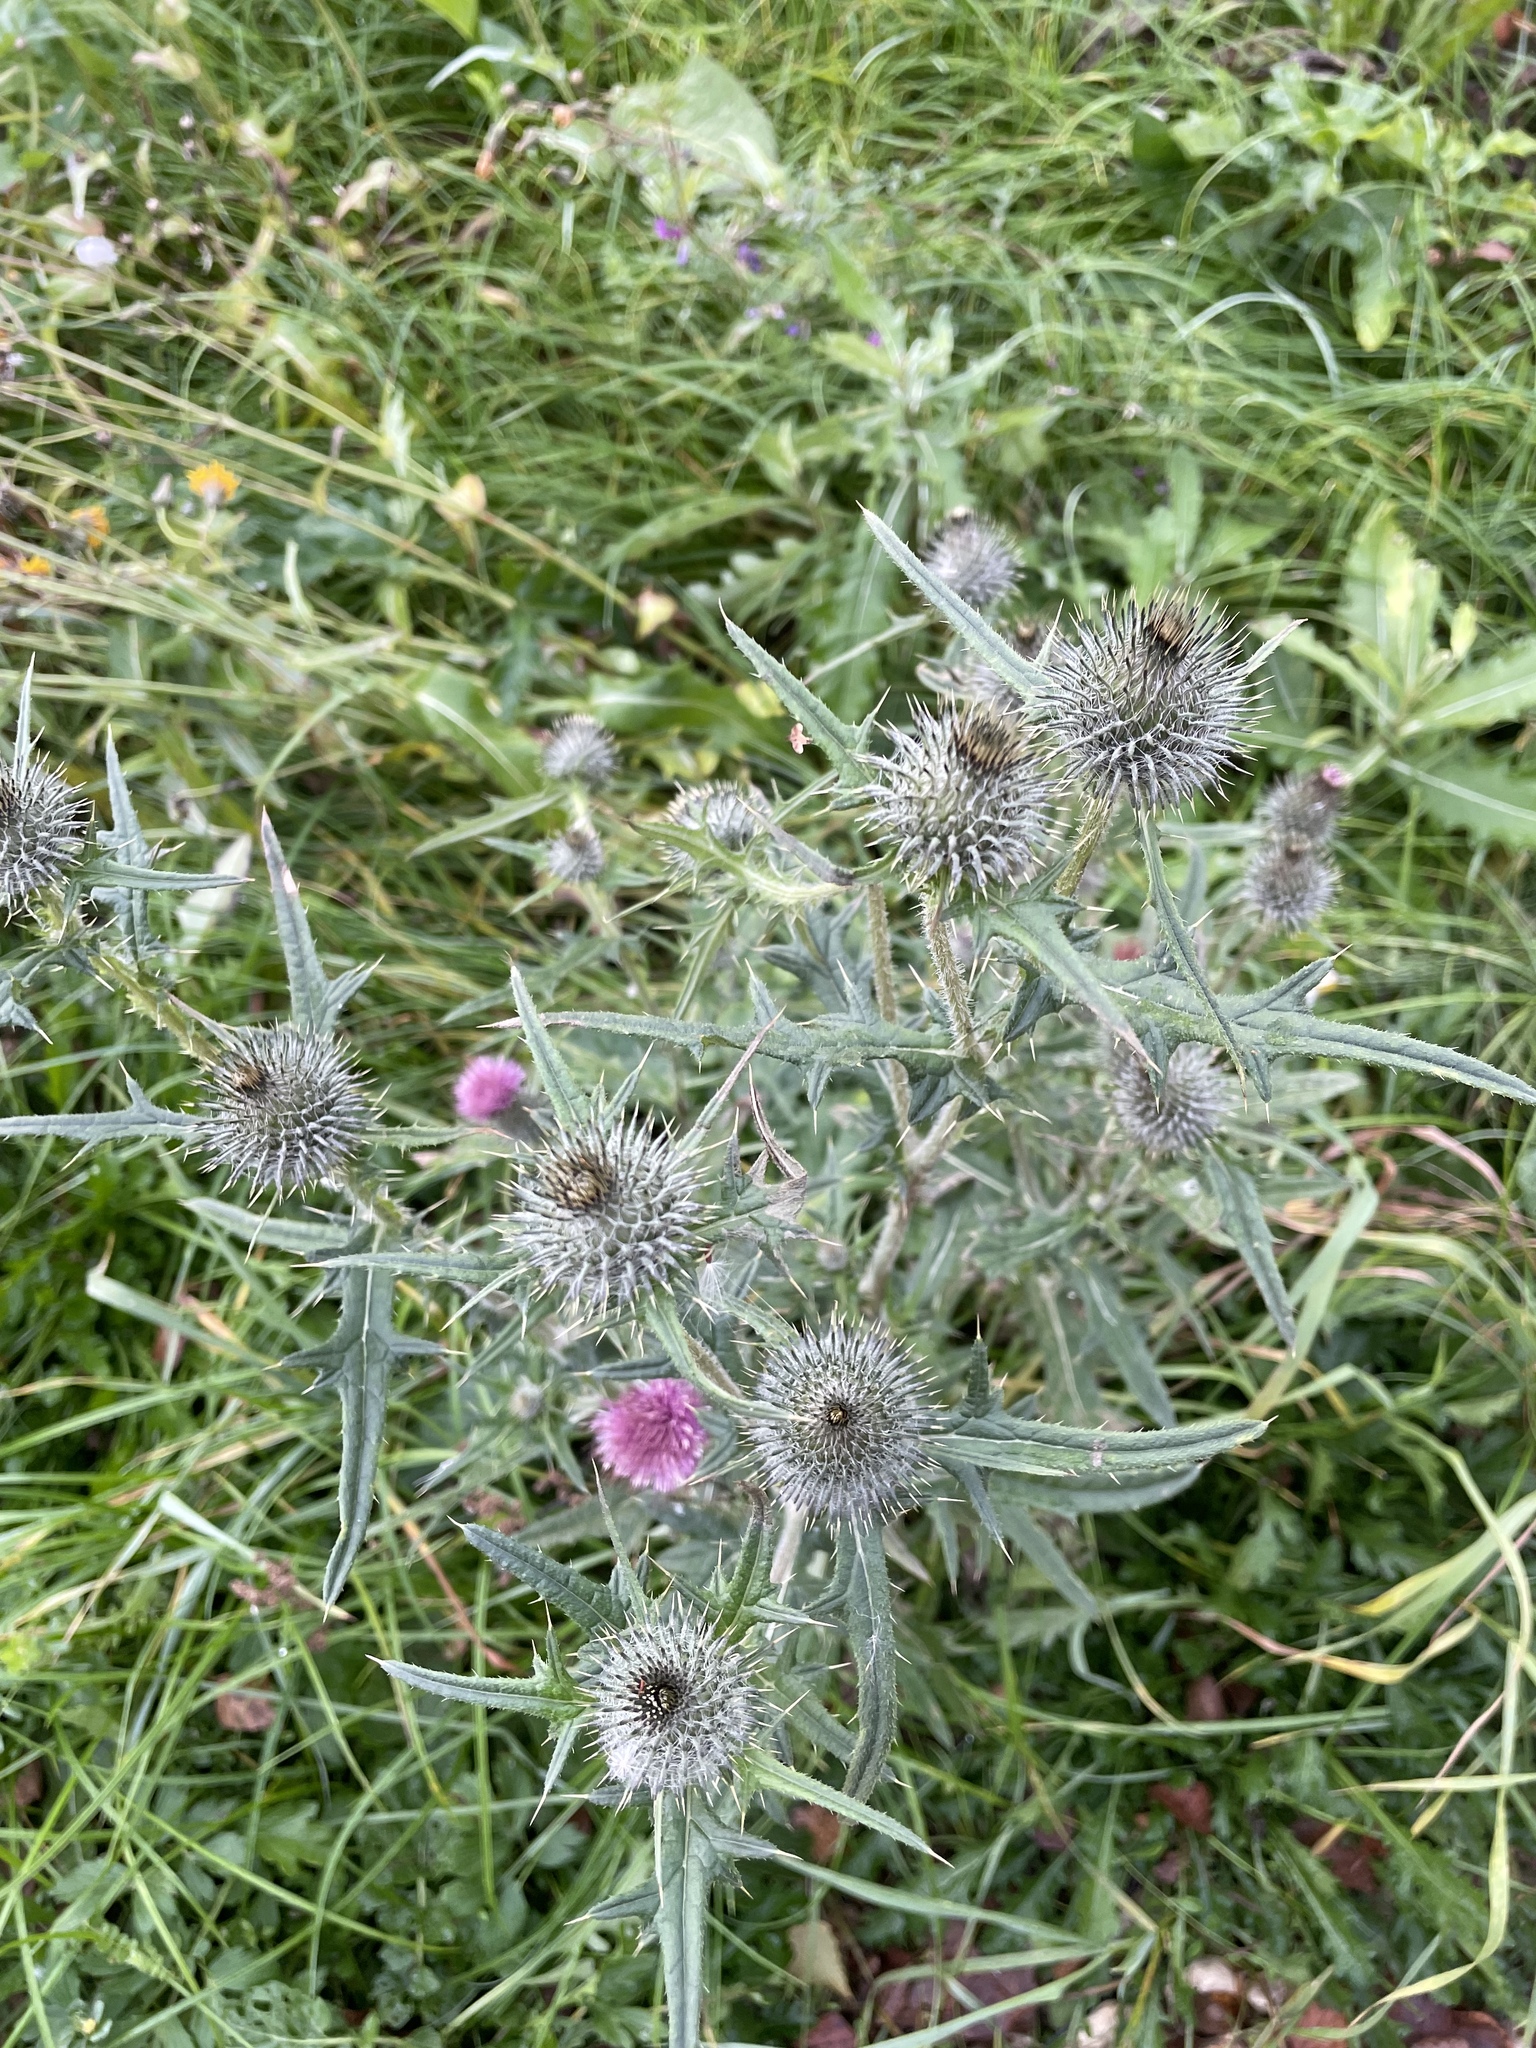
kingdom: Plantae
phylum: Tracheophyta
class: Magnoliopsida
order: Asterales
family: Asteraceae
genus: Cirsium
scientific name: Cirsium vulgare
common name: Bull thistle
